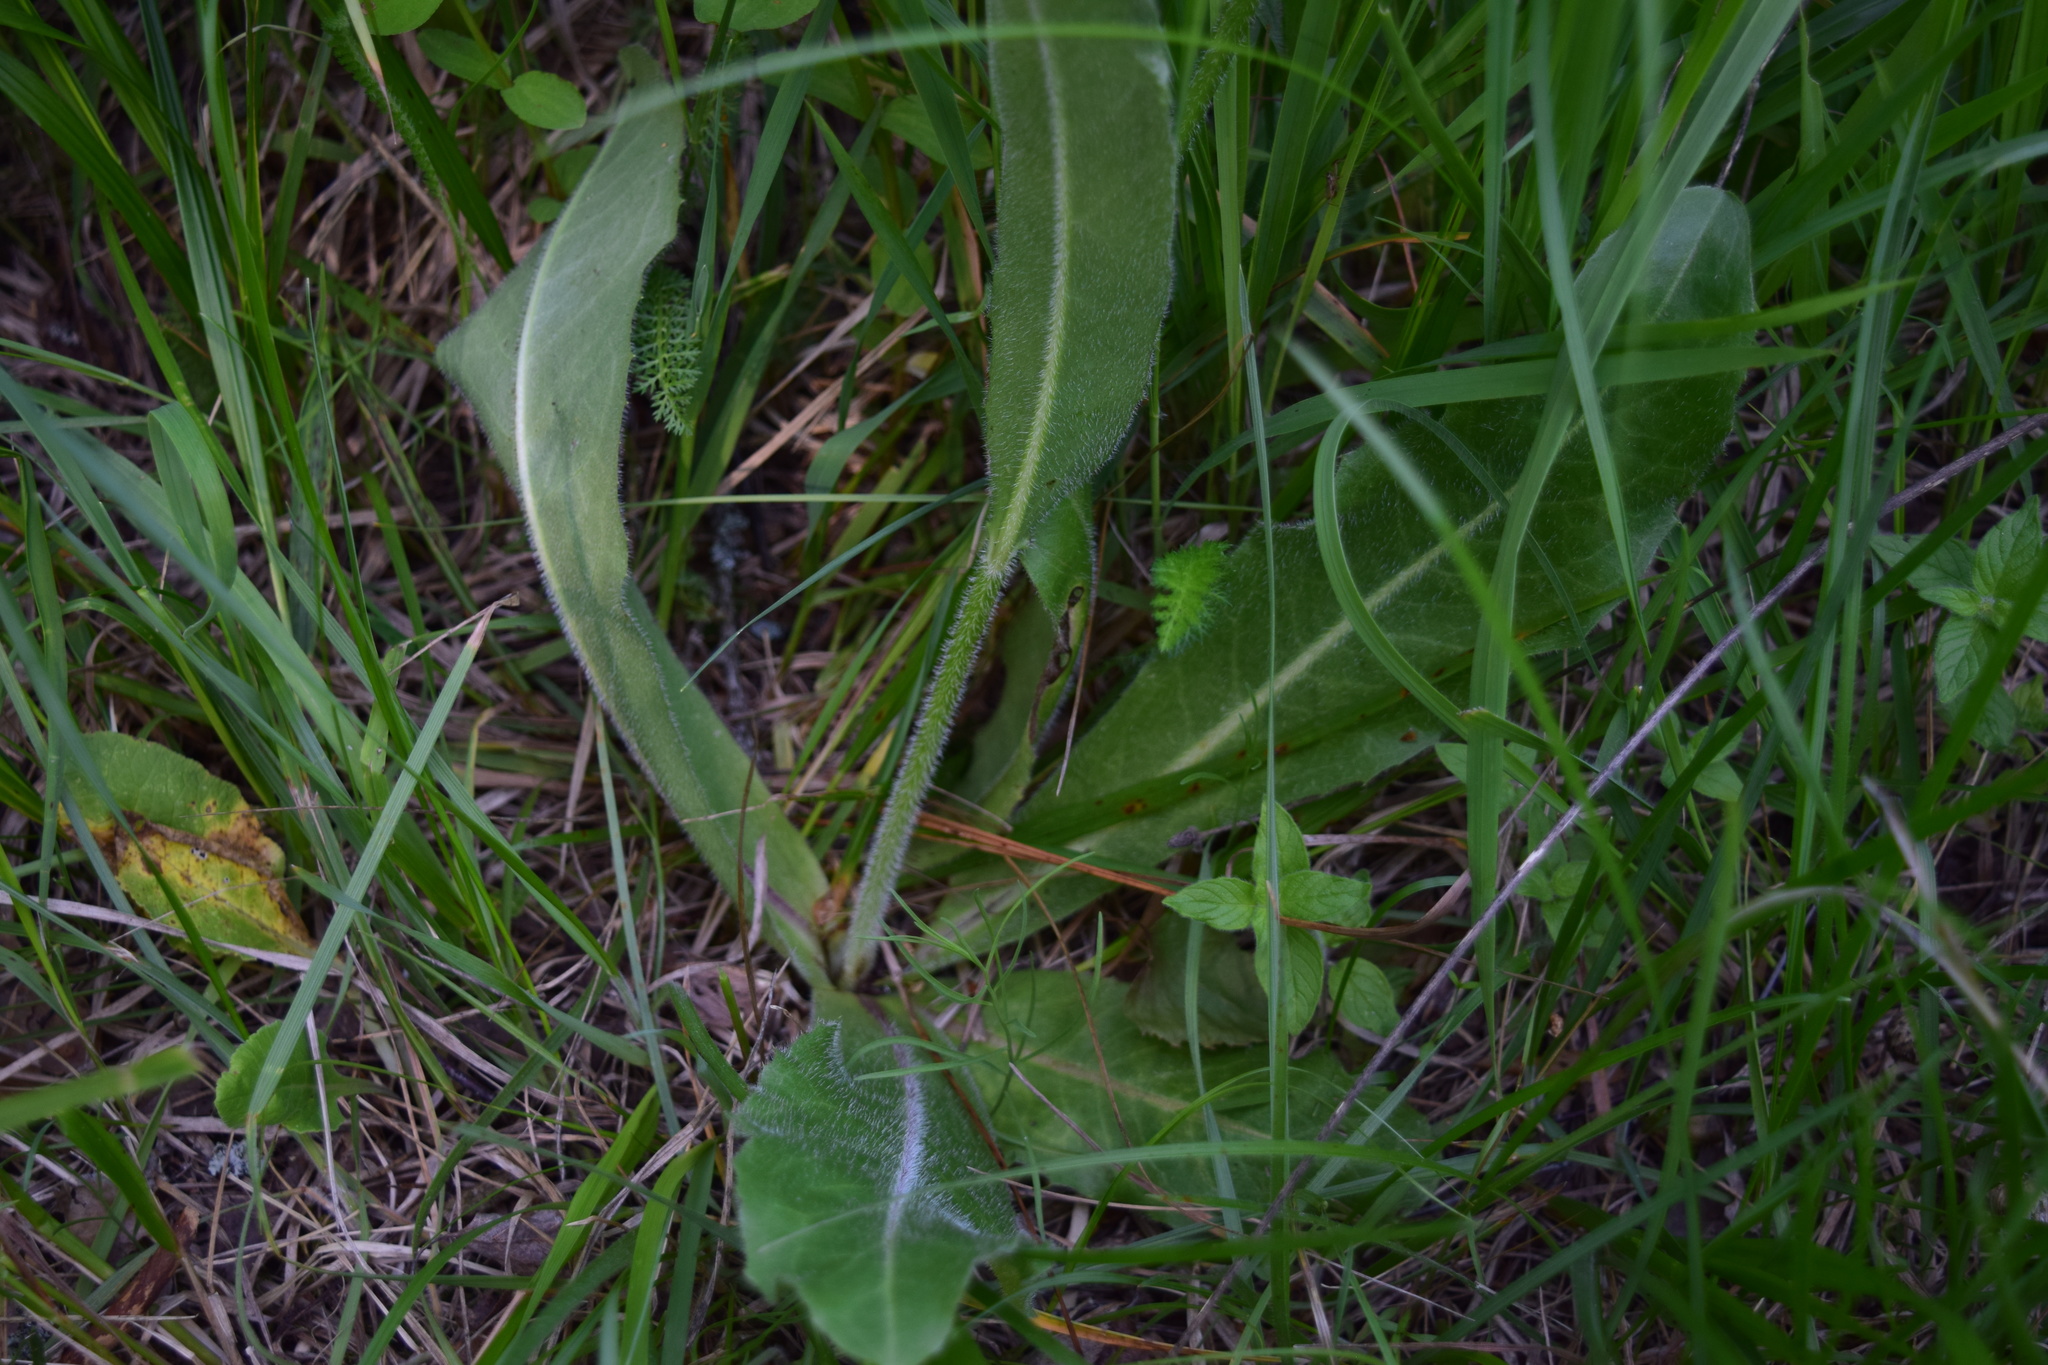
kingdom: Plantae
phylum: Tracheophyta
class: Magnoliopsida
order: Asterales
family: Asteraceae
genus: Trommsdorffia
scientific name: Trommsdorffia maculata
